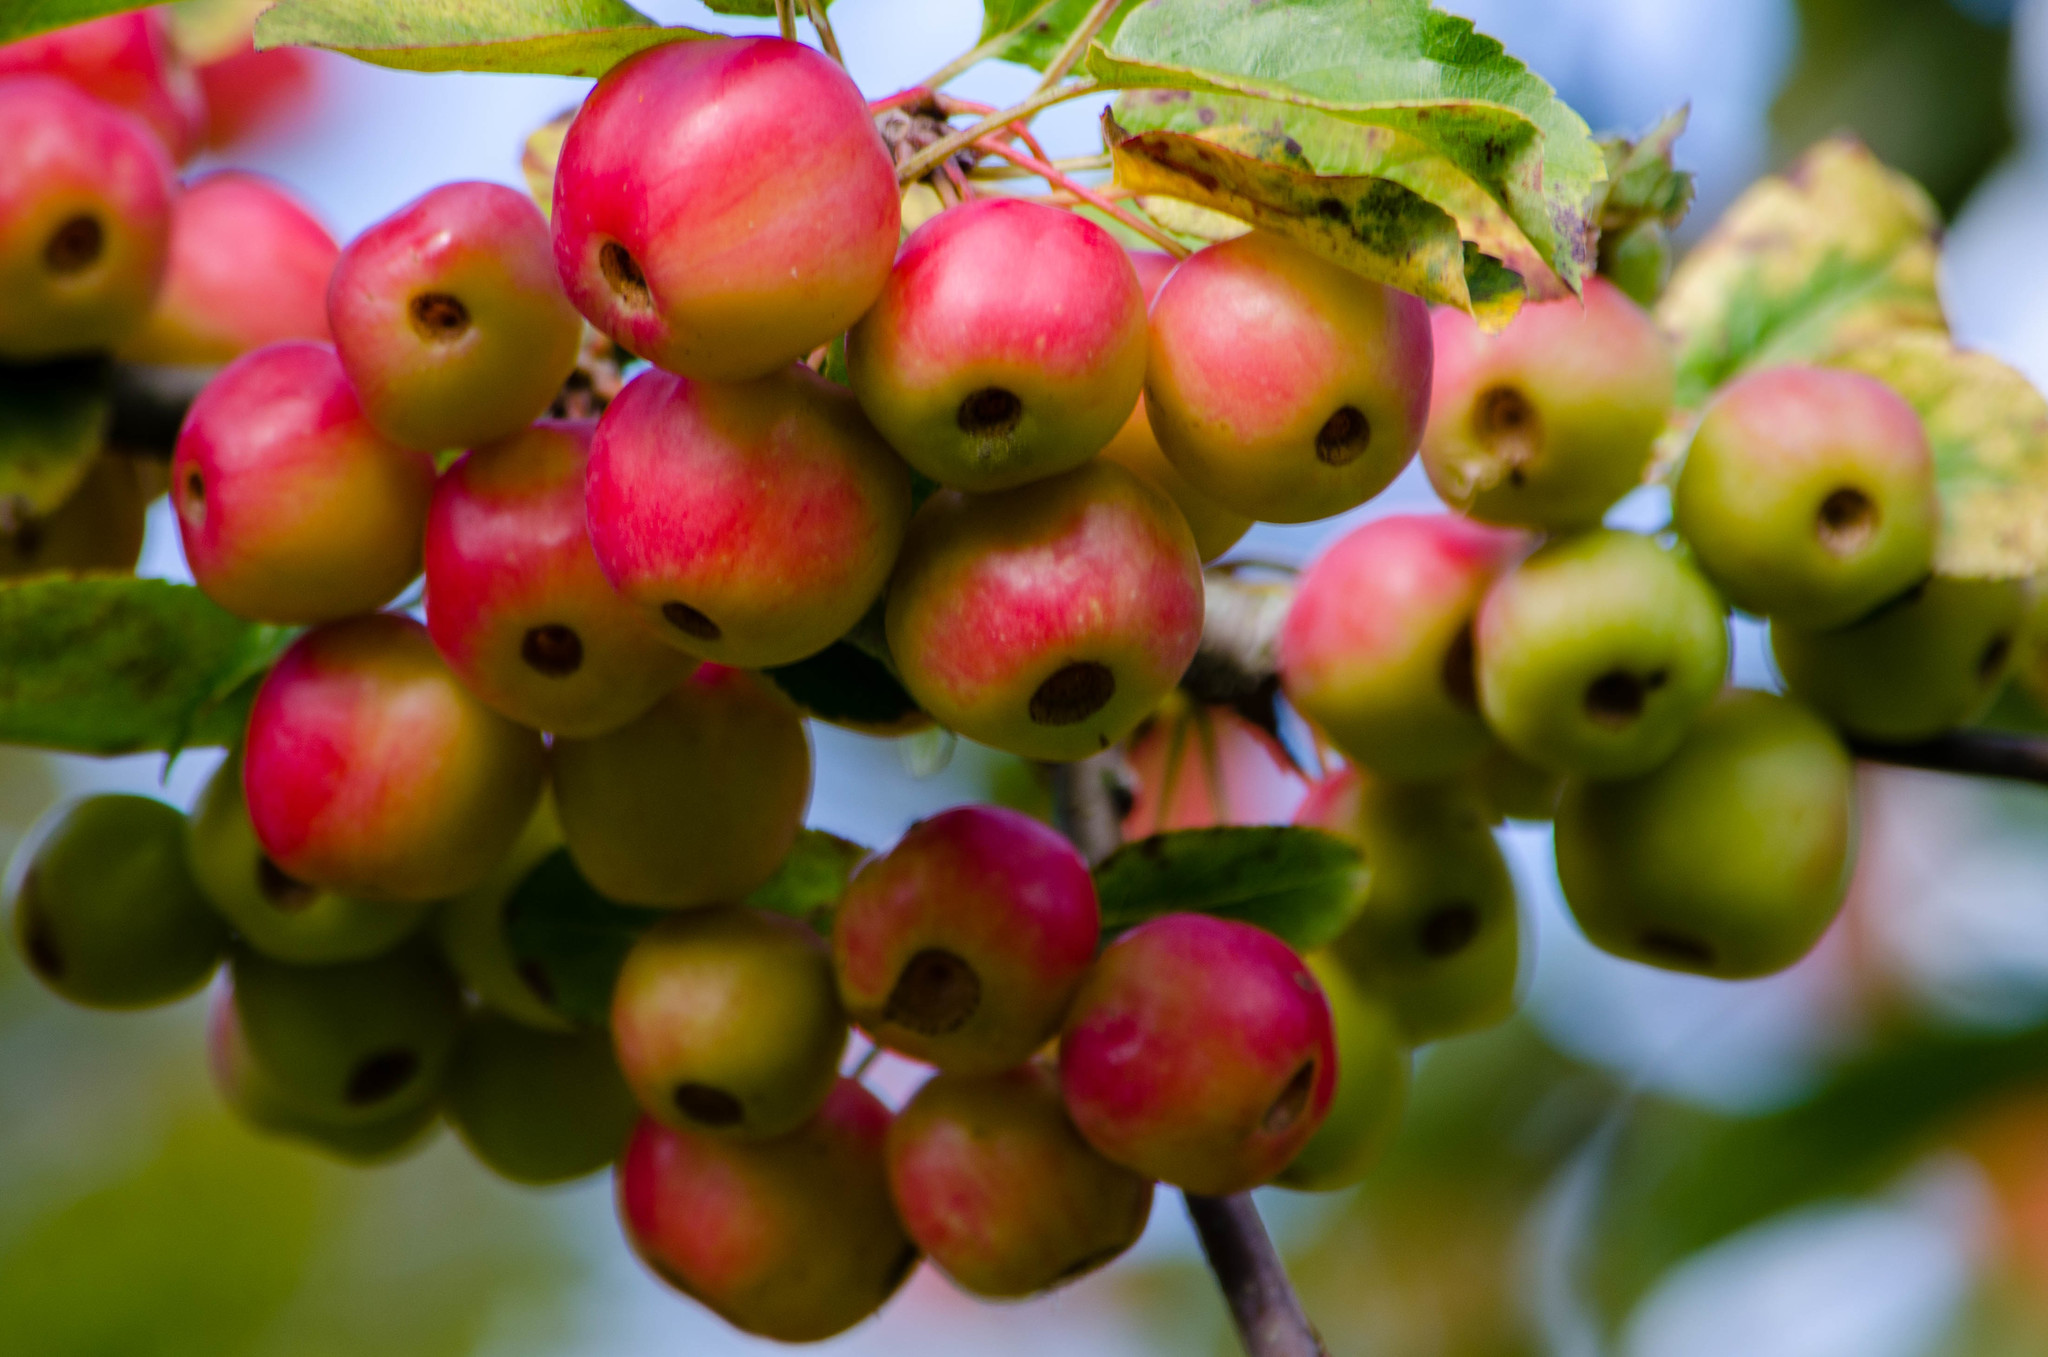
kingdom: Plantae
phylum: Tracheophyta
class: Magnoliopsida
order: Rosales
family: Rosaceae
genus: Malus
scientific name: Malus sylvestris
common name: Crab apple
